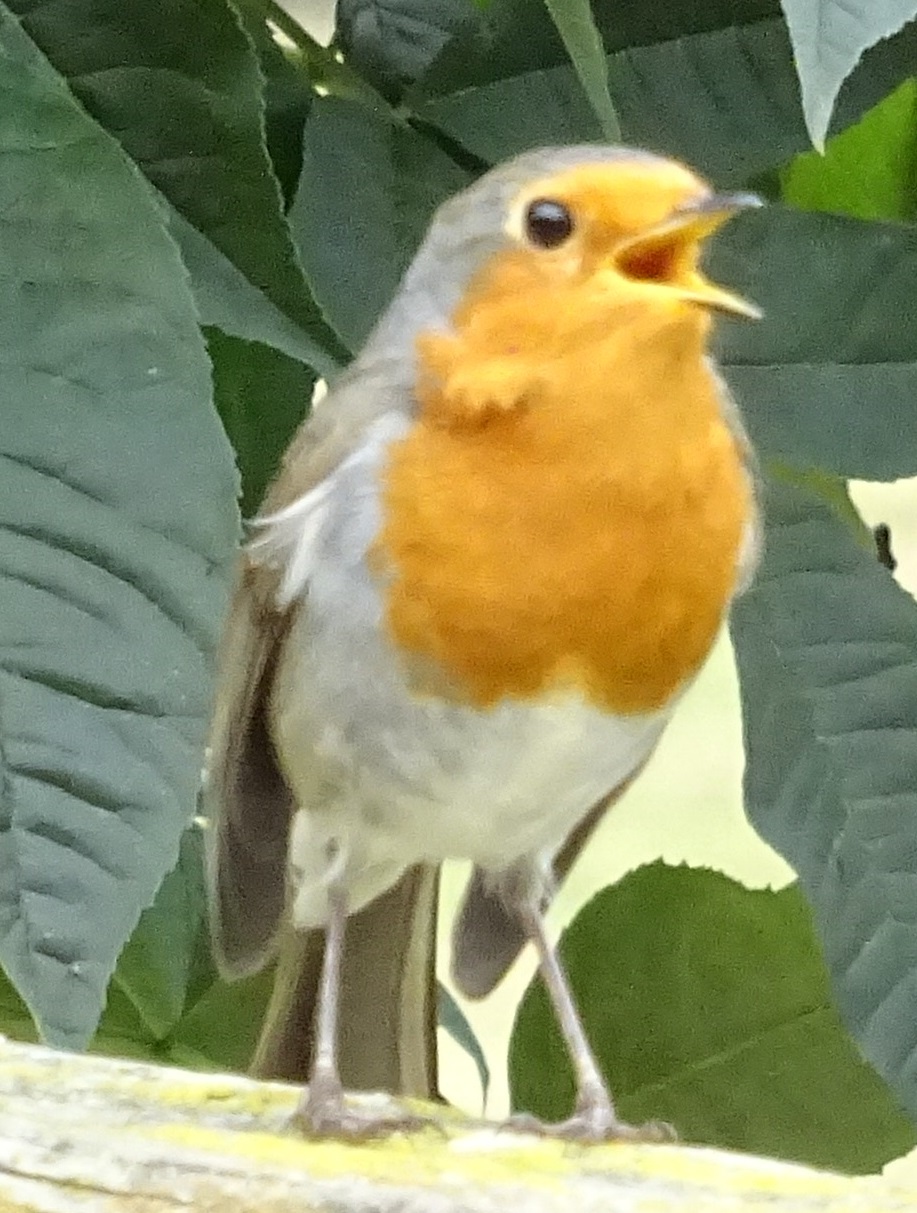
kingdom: Animalia
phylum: Chordata
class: Aves
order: Passeriformes
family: Muscicapidae
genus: Erithacus
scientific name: Erithacus rubecula
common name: European robin
